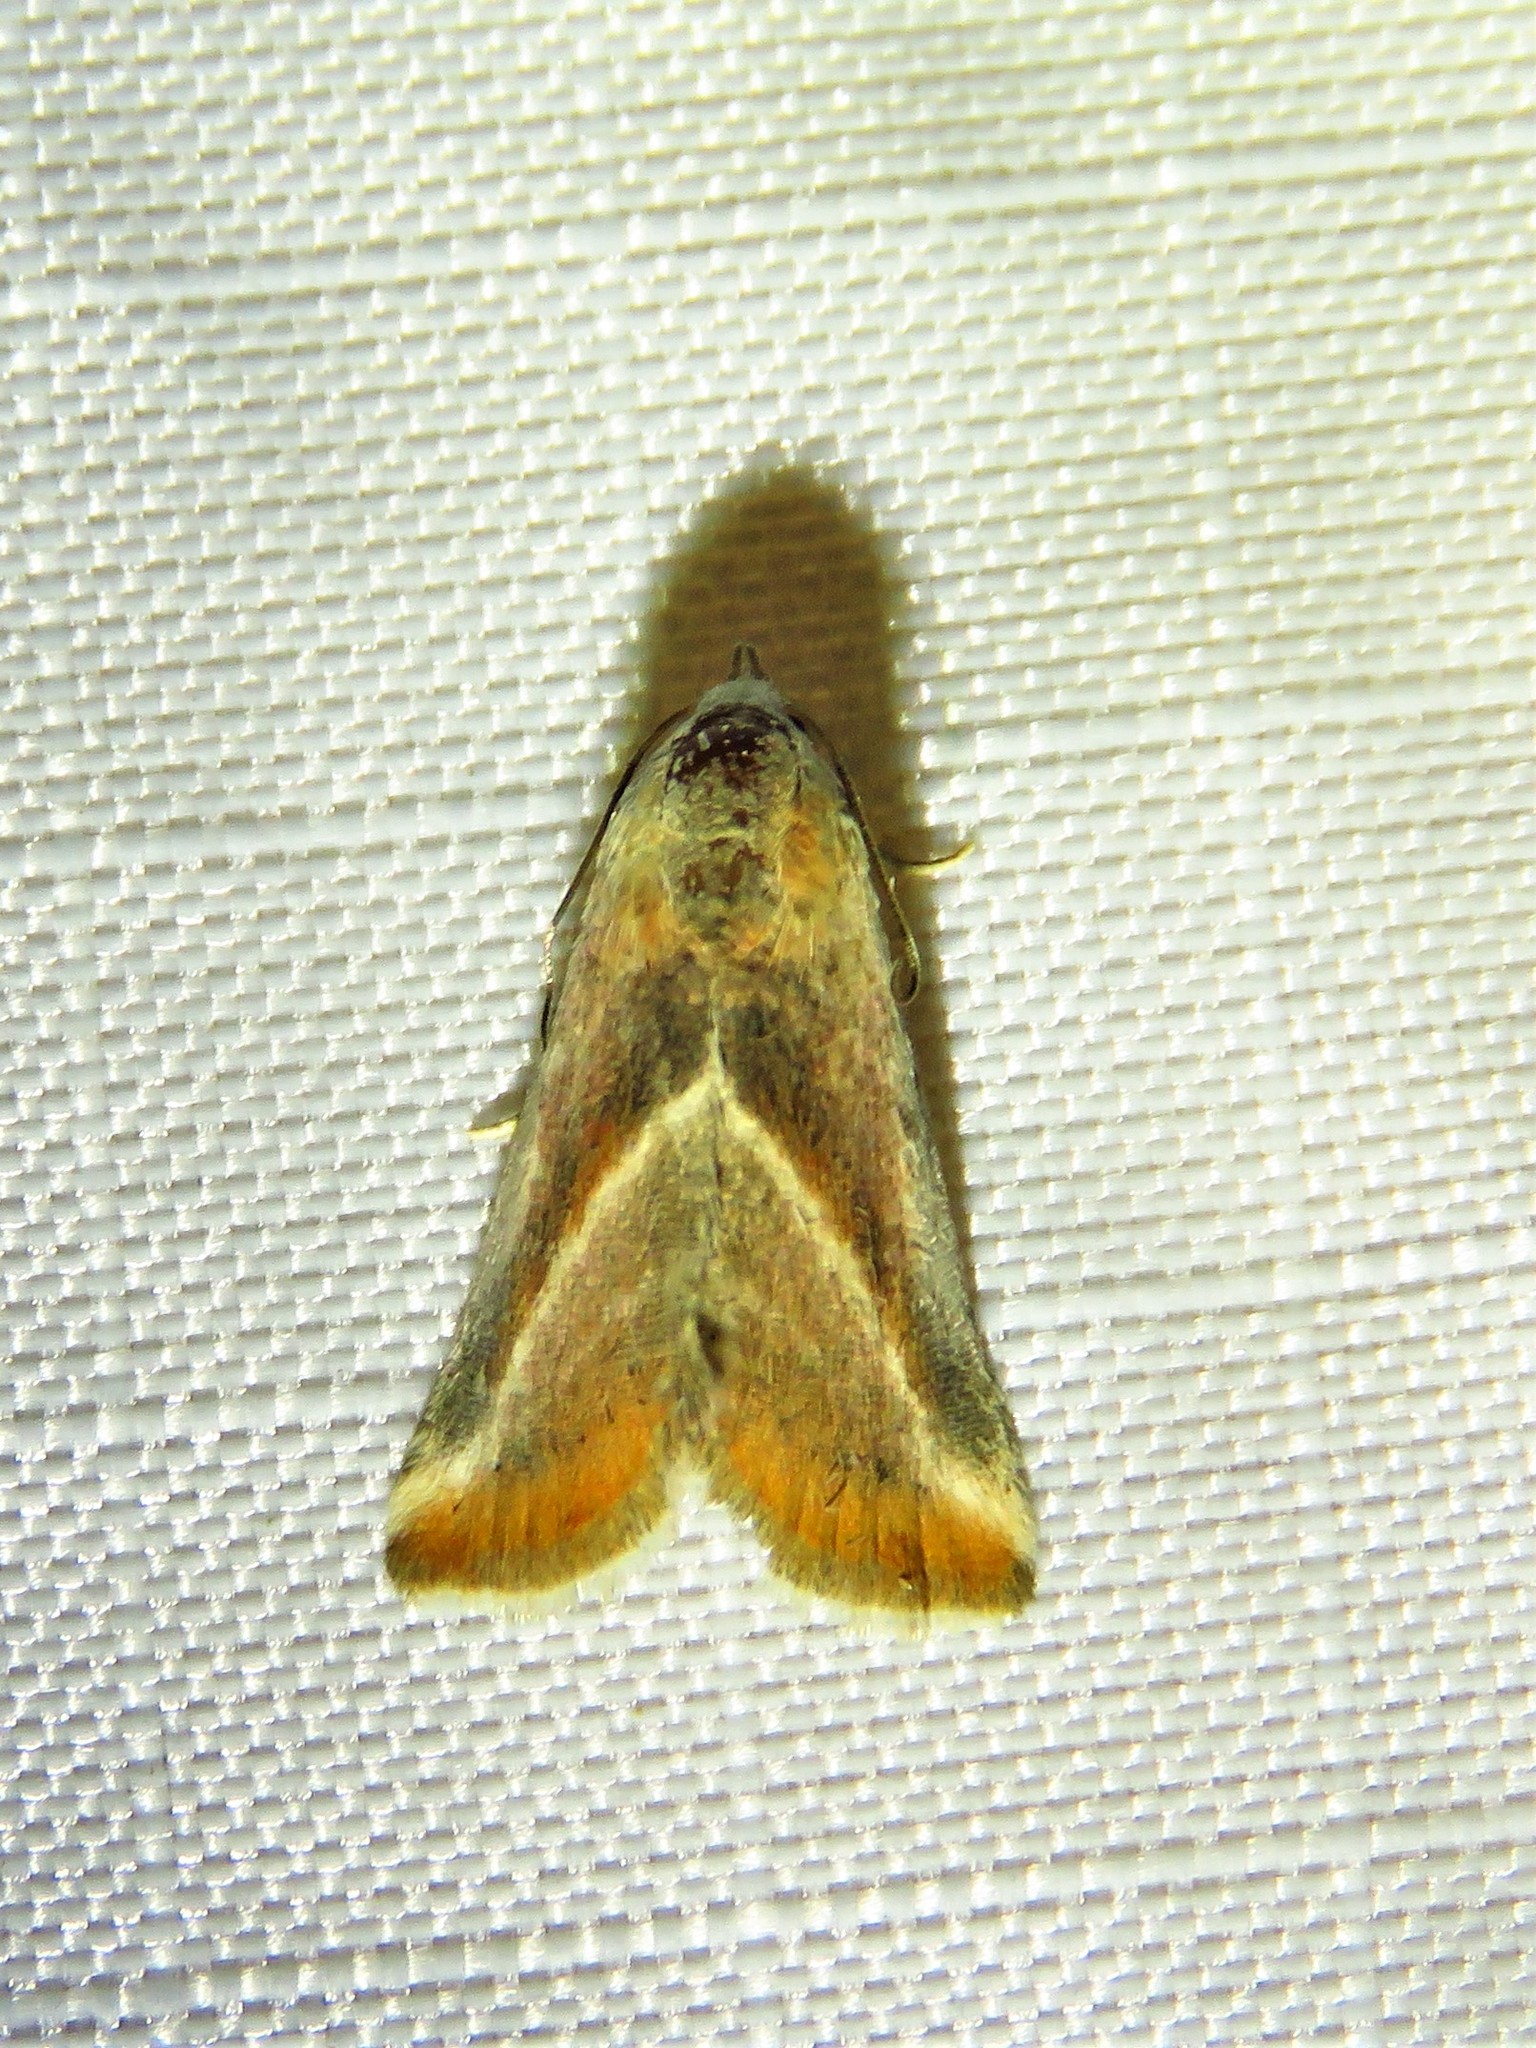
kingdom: Animalia
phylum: Arthropoda
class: Insecta
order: Lepidoptera
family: Noctuidae
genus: Eublemma
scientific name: Eublemma recta
